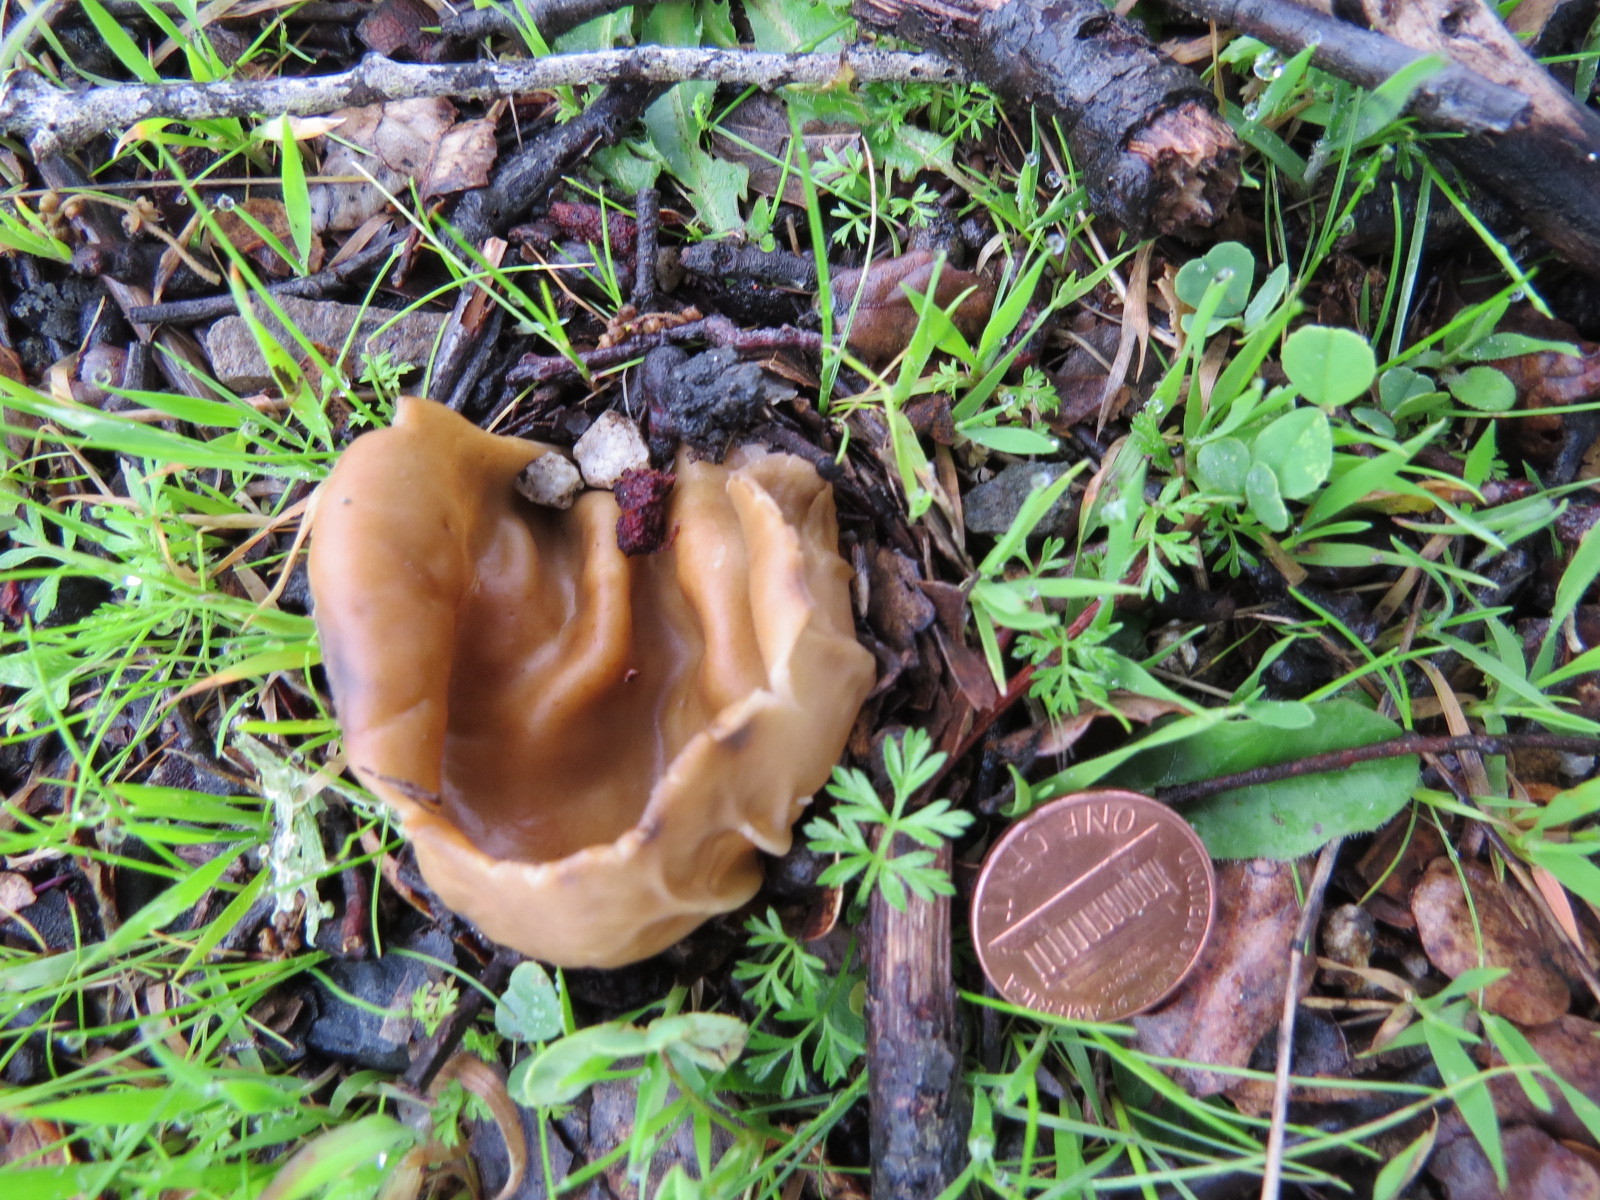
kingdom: Fungi
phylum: Ascomycota
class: Pezizomycetes
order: Pezizales
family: Helvellaceae
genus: Helvella
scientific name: Helvella acetabulum
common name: Vinegar cup
